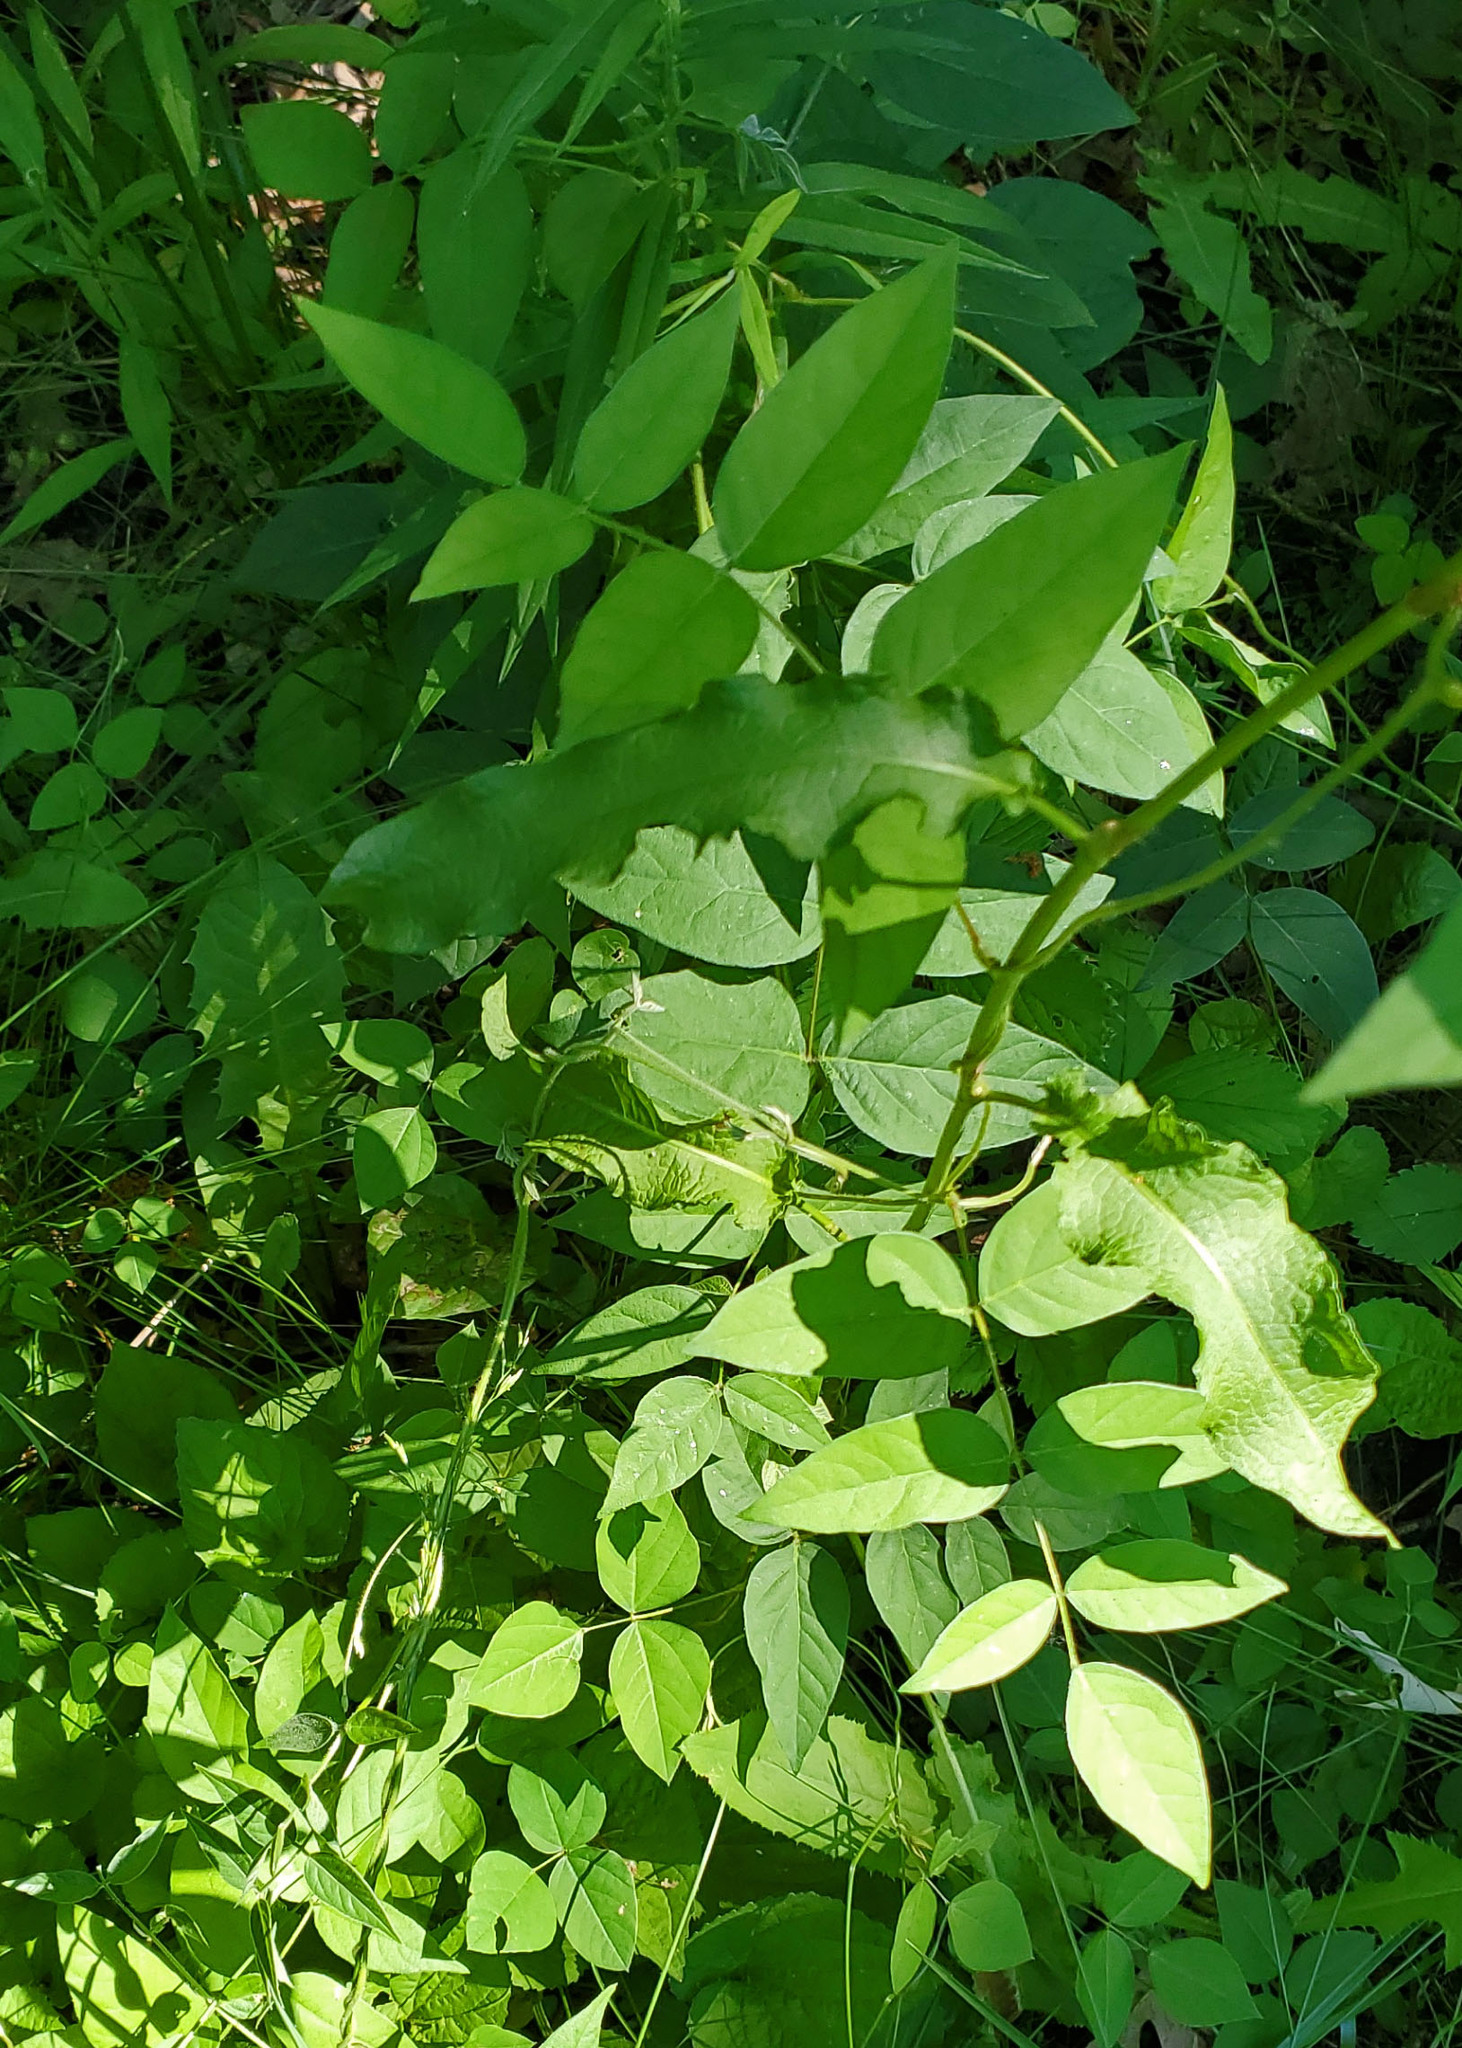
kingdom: Plantae
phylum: Tracheophyta
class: Magnoliopsida
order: Fabales
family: Fabaceae
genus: Apios
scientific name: Apios americana
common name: American potato-bean
